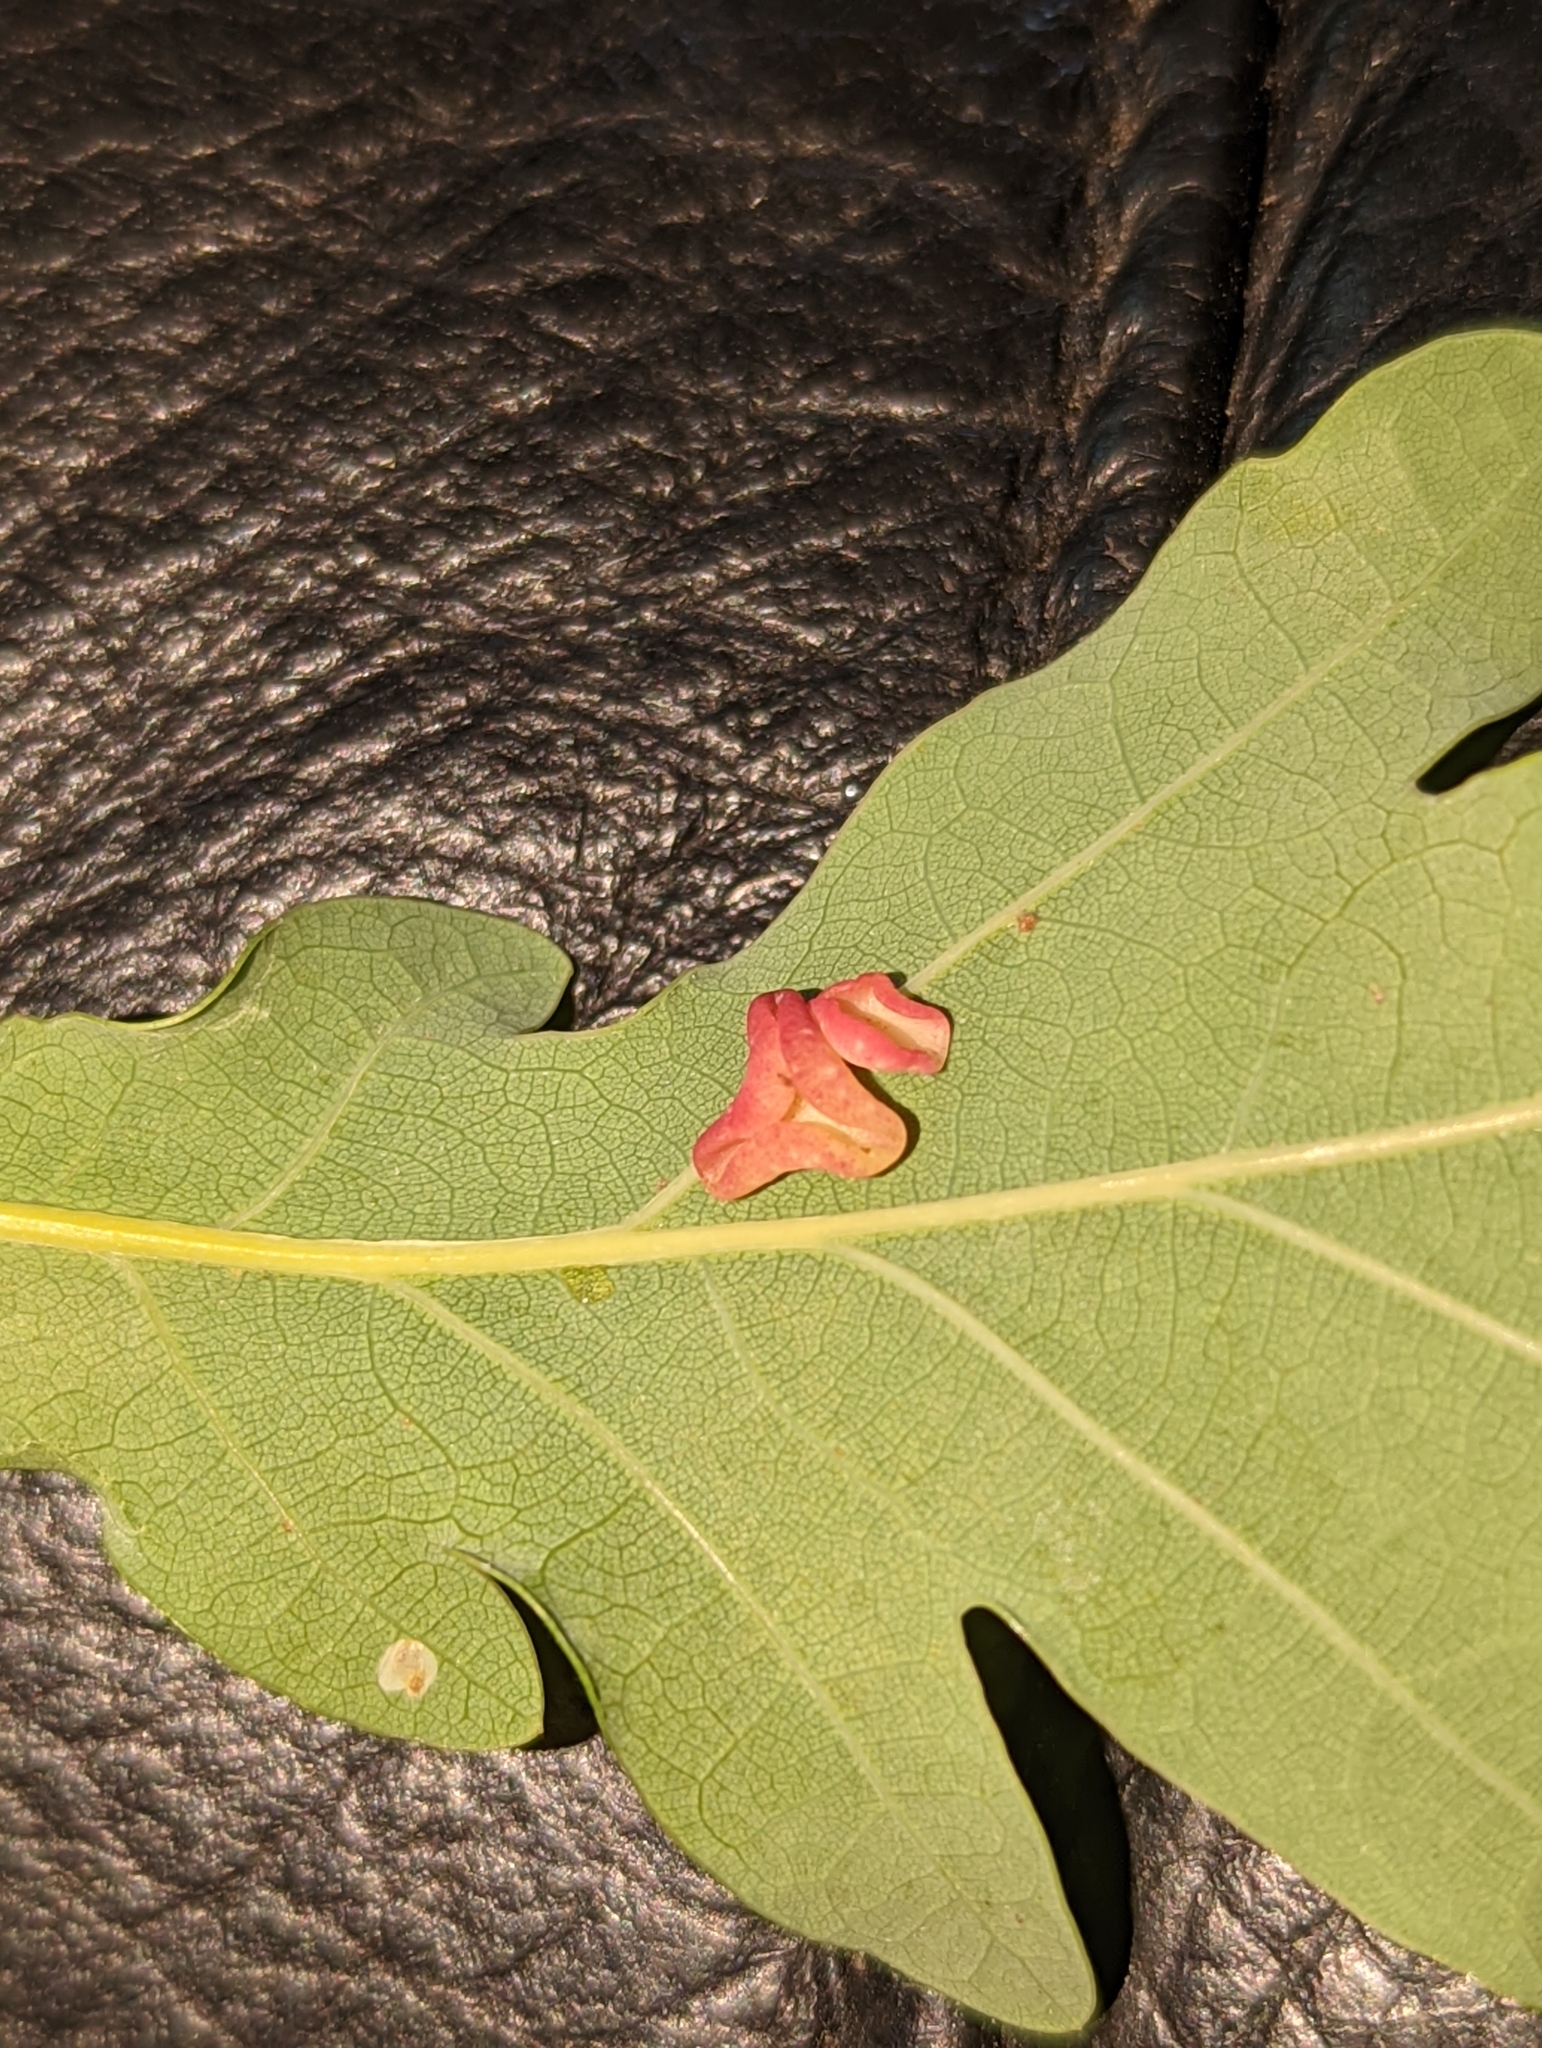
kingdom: Animalia
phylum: Arthropoda
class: Insecta
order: Hymenoptera
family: Cynipidae
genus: Neuroterus
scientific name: Neuroterus albipes
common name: Smooth spangle gall
